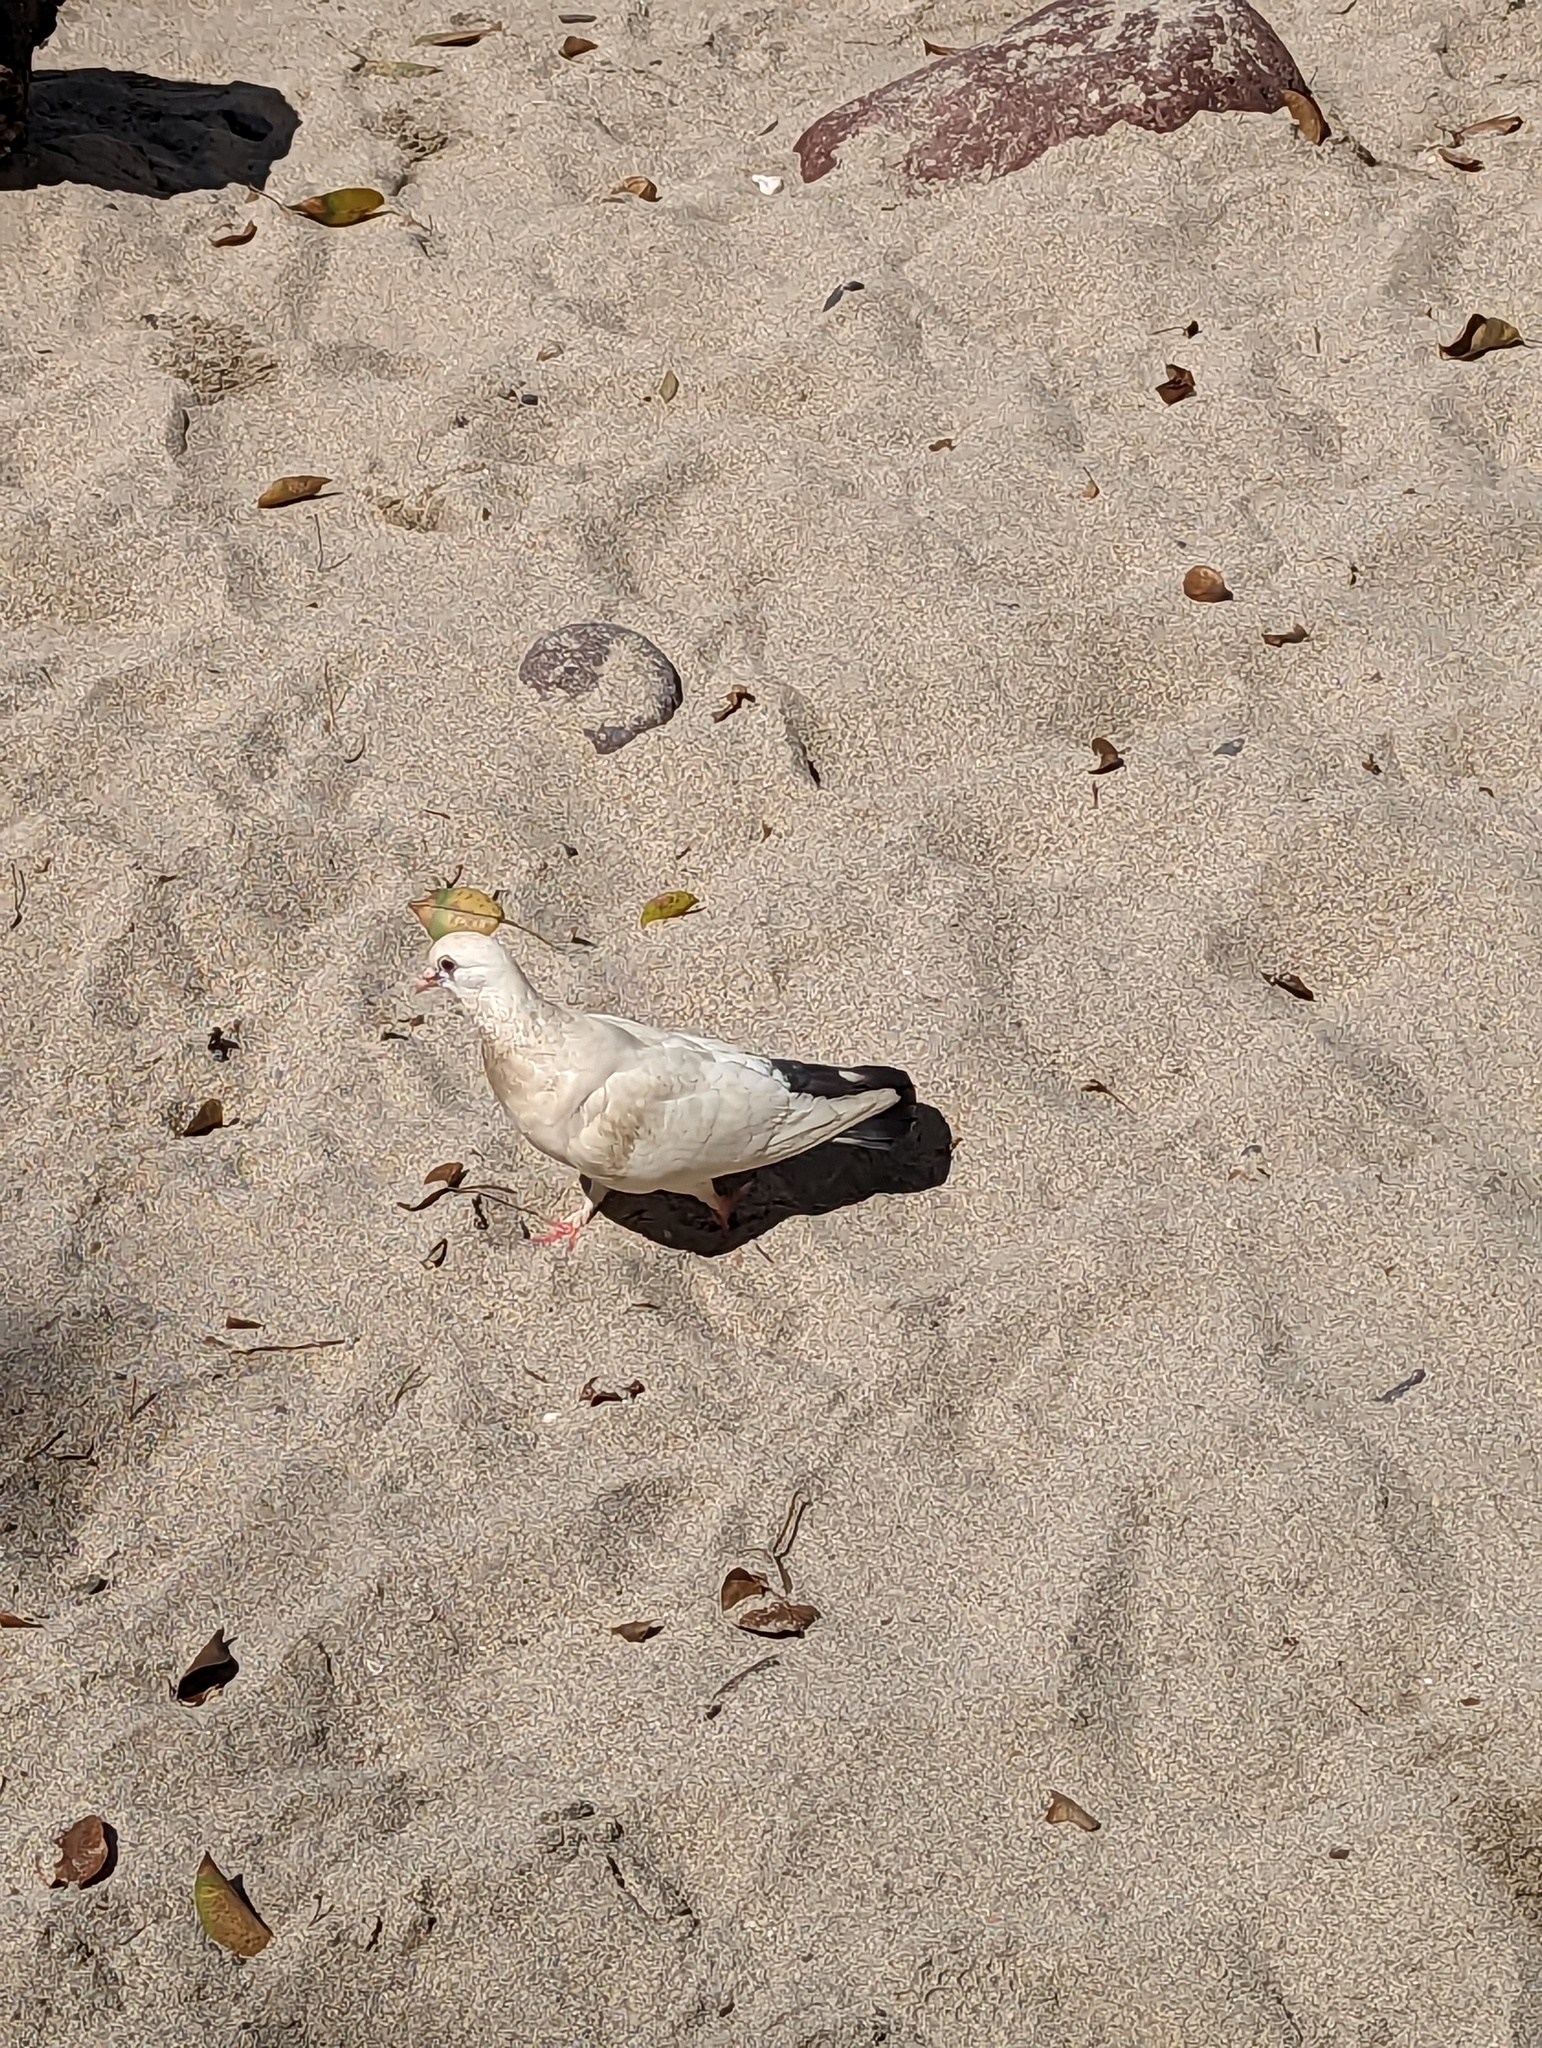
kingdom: Animalia
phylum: Chordata
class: Aves
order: Columbiformes
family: Columbidae
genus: Columba
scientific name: Columba livia
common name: Rock pigeon
